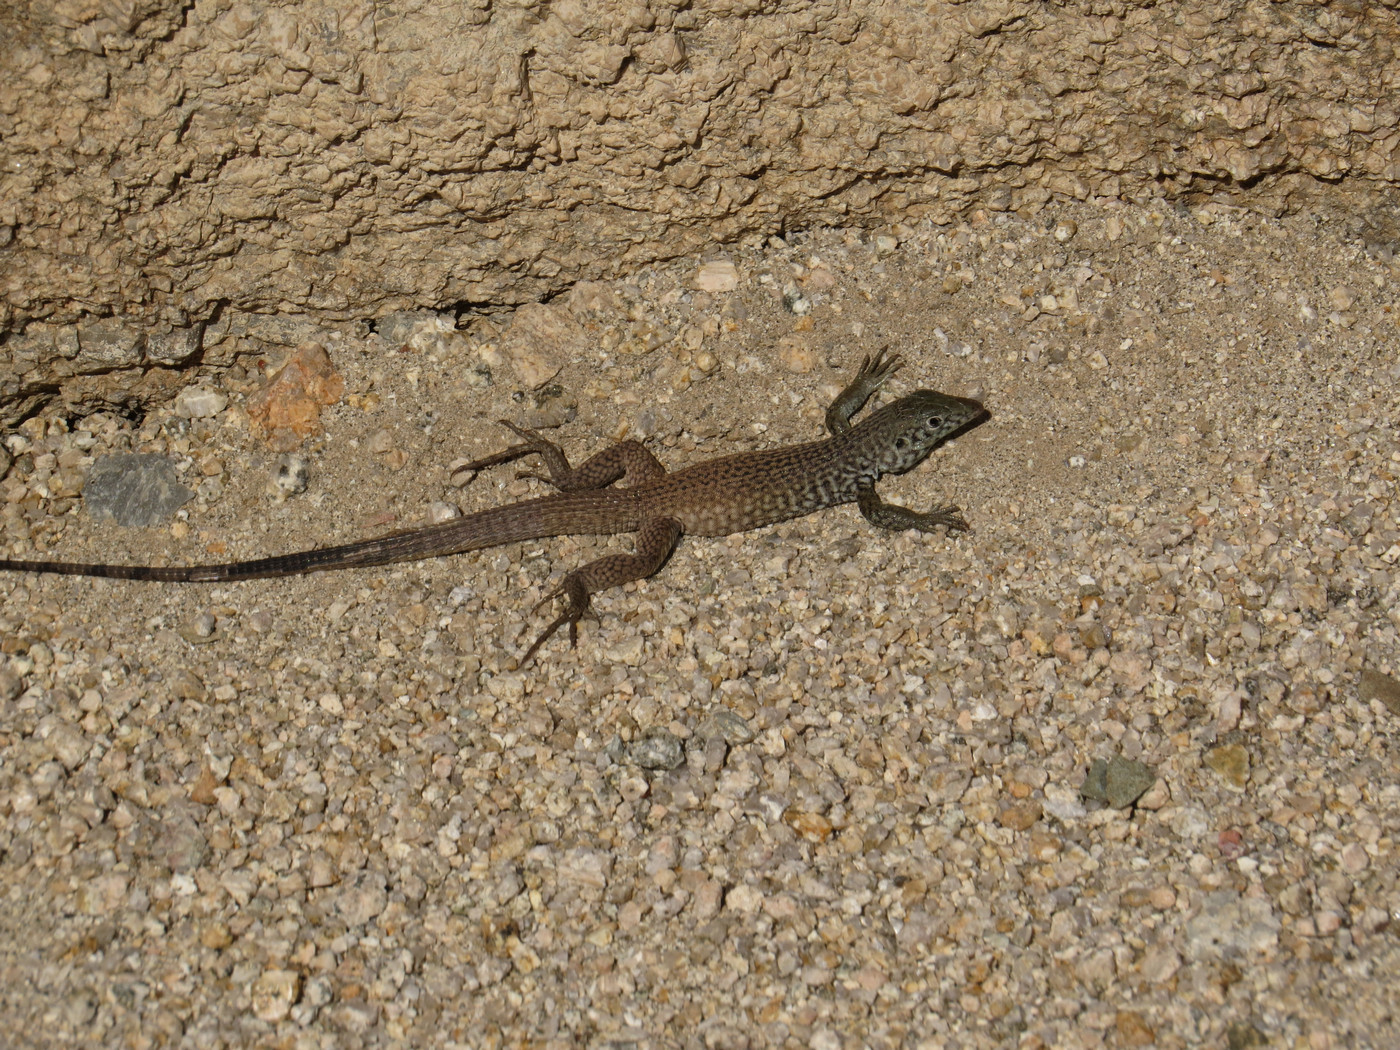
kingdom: Animalia
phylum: Chordata
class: Squamata
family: Teiidae
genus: Aspidoscelis
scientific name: Aspidoscelis tigris
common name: Tiger whiptail
